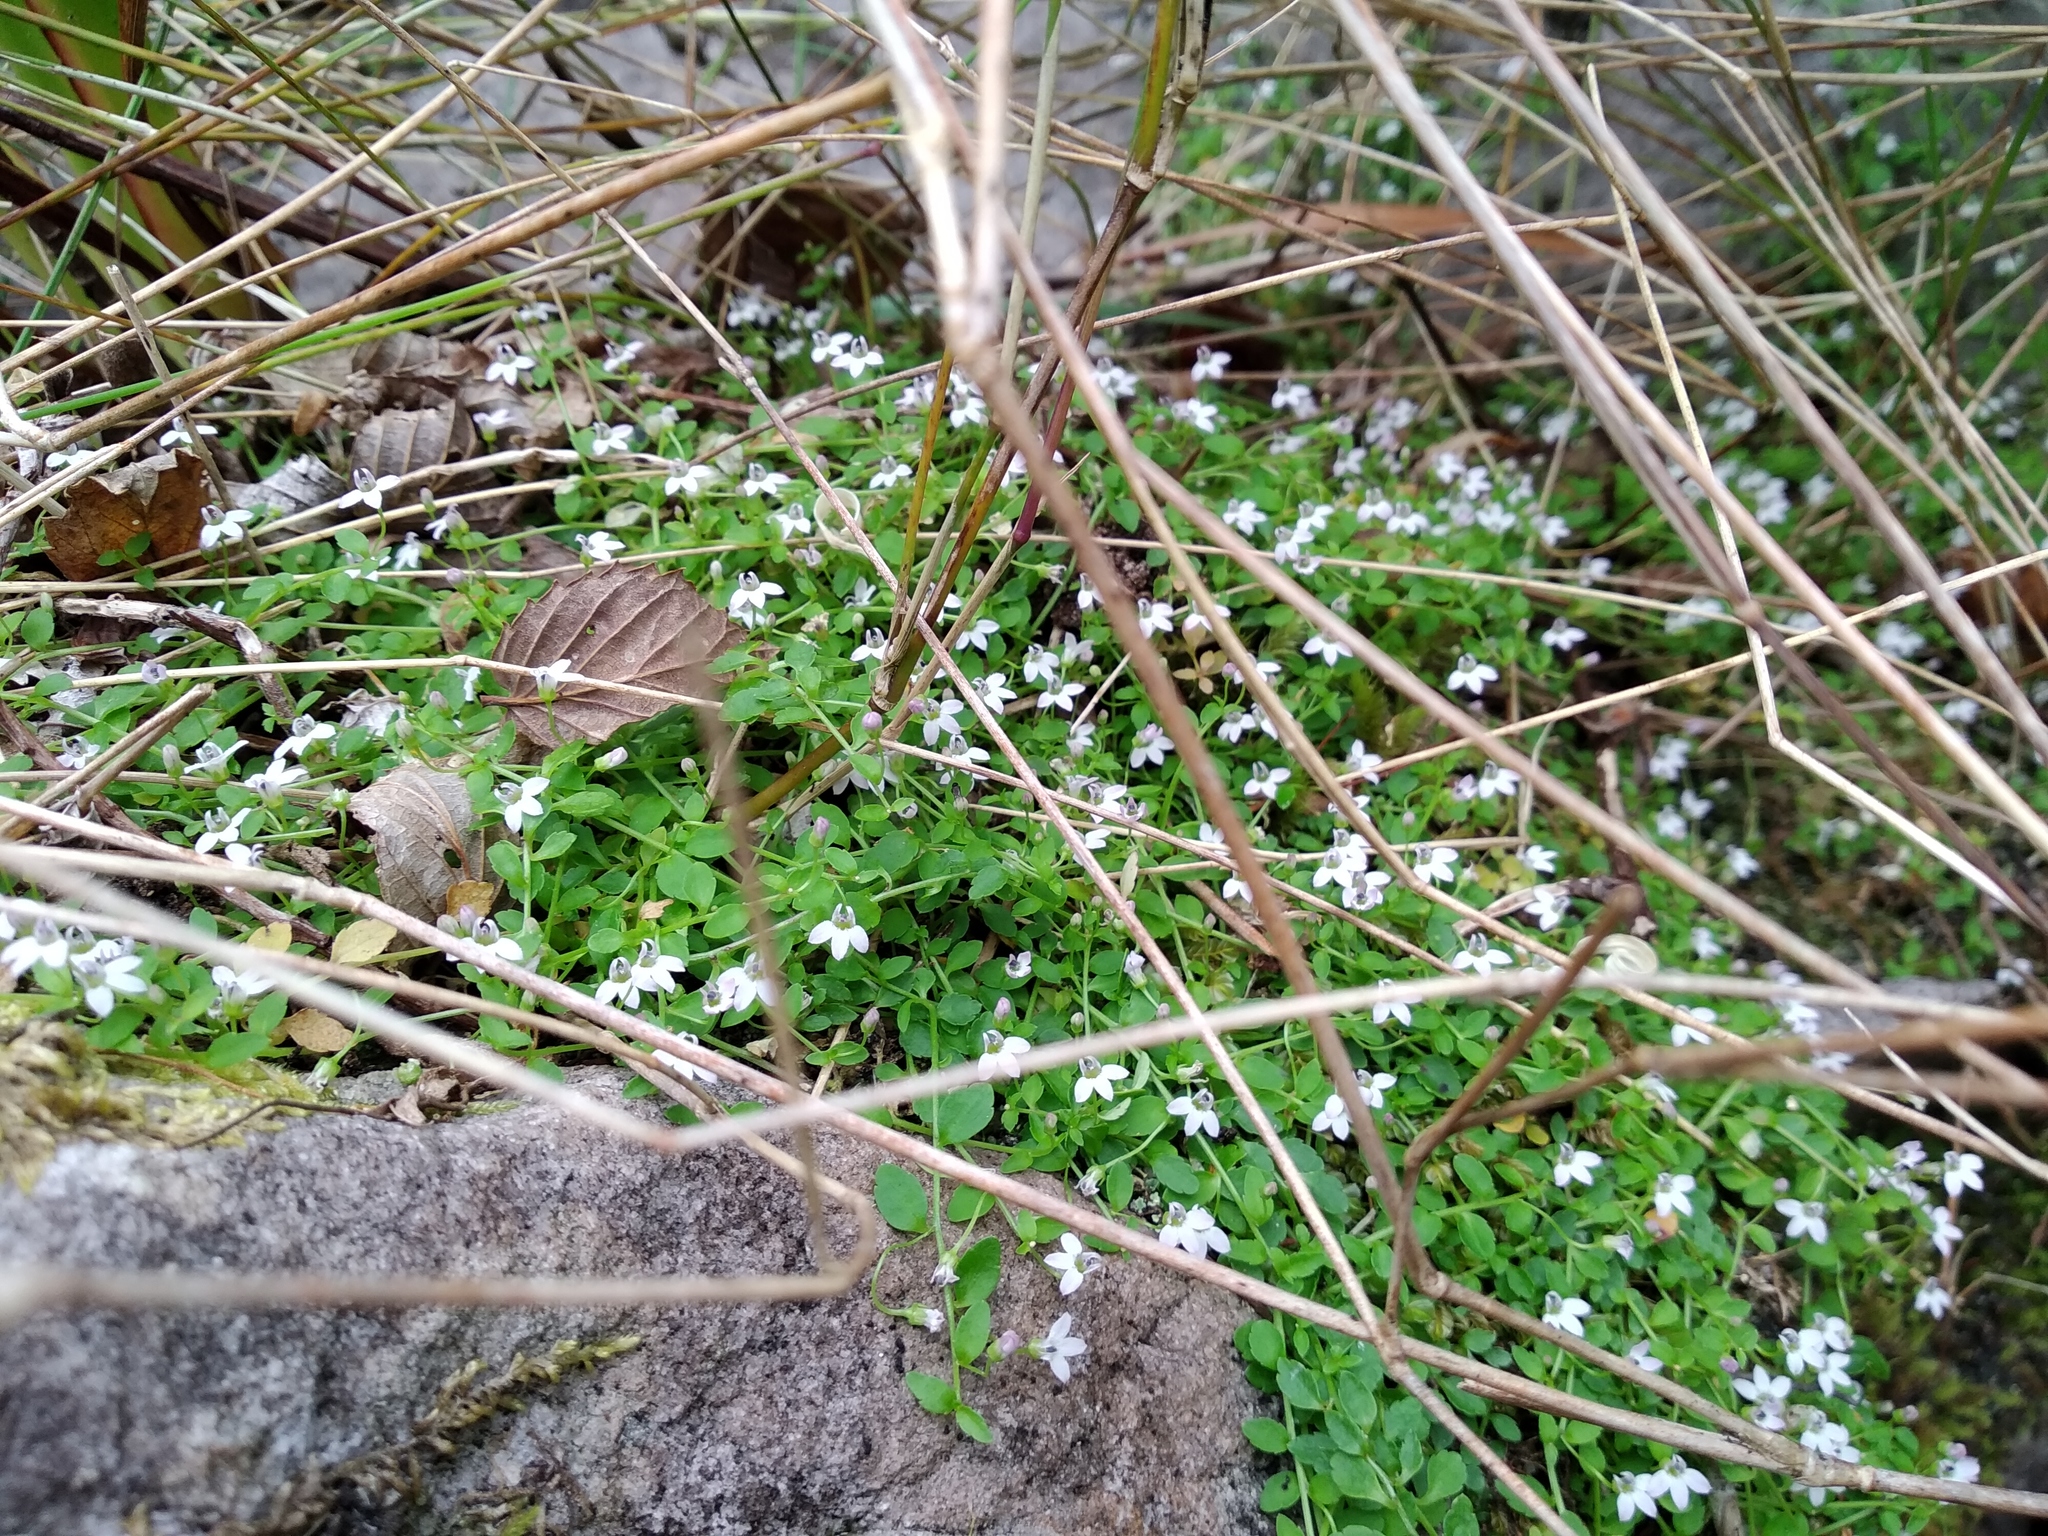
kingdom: Plantae
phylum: Tracheophyta
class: Magnoliopsida
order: Asterales
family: Campanulaceae
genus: Unigenes
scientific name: Unigenes humifusa
